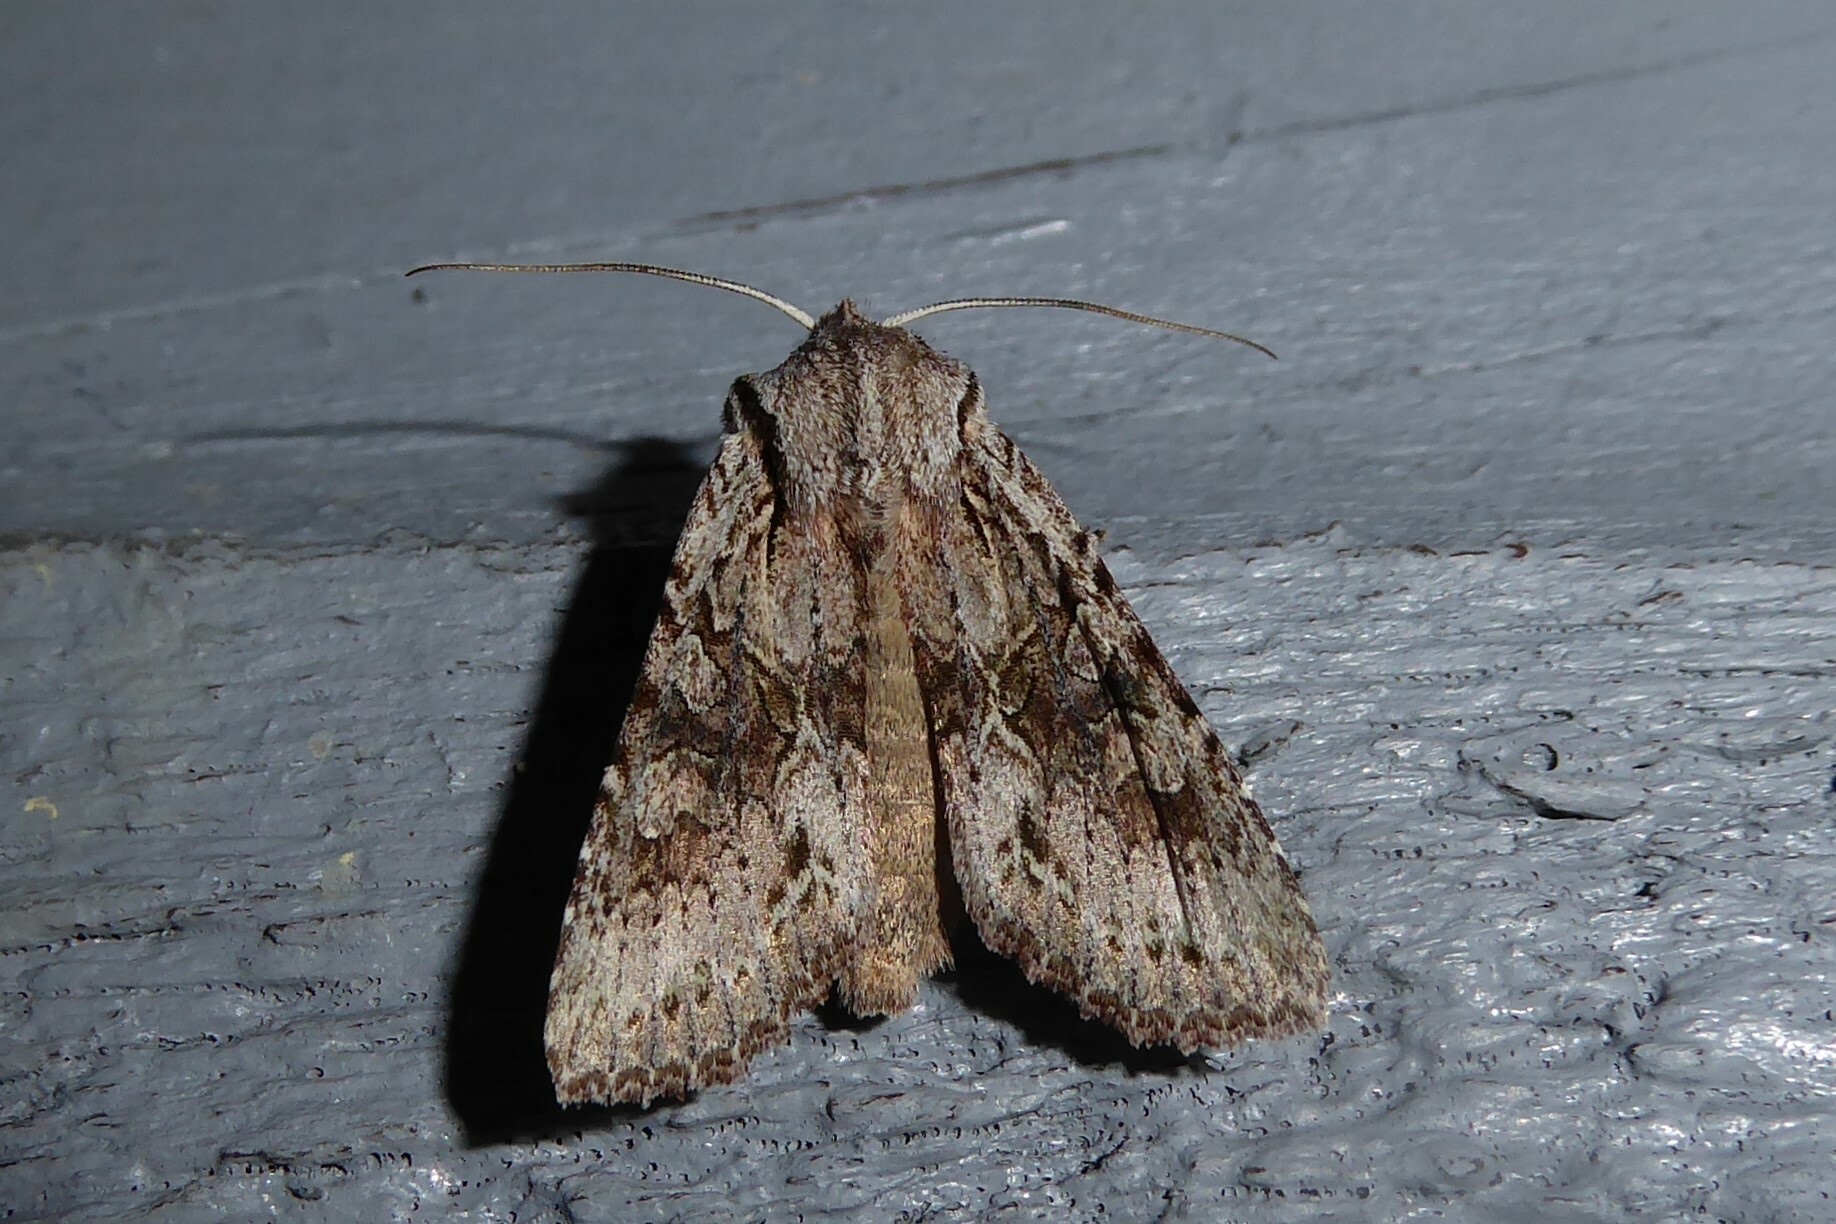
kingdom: Animalia
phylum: Arthropoda
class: Insecta
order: Lepidoptera
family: Noctuidae
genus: Ichneutica
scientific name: Ichneutica mutans
